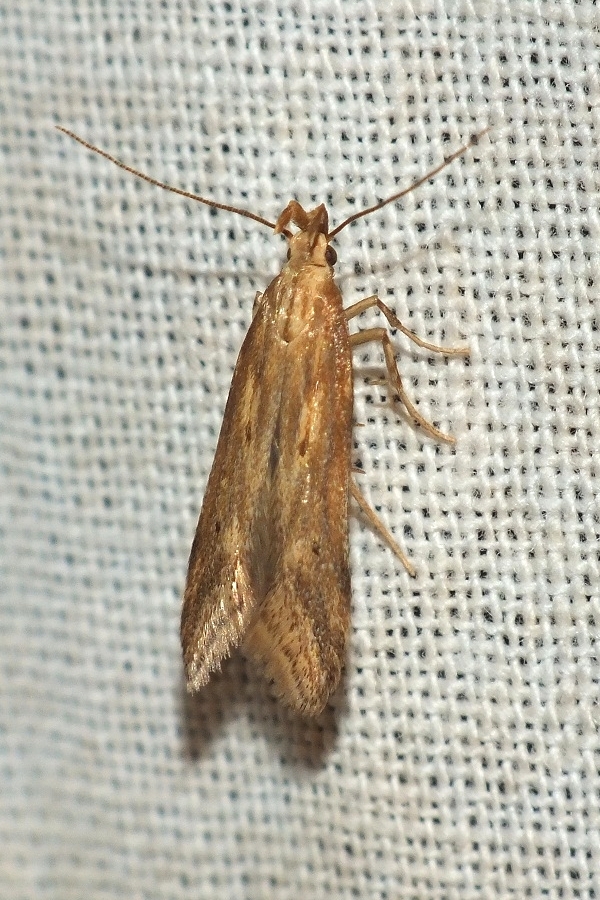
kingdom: Animalia
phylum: Arthropoda
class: Insecta
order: Lepidoptera
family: Gelechiidae
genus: Metzneria
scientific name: Metzneria lappella
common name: Burdock neb
